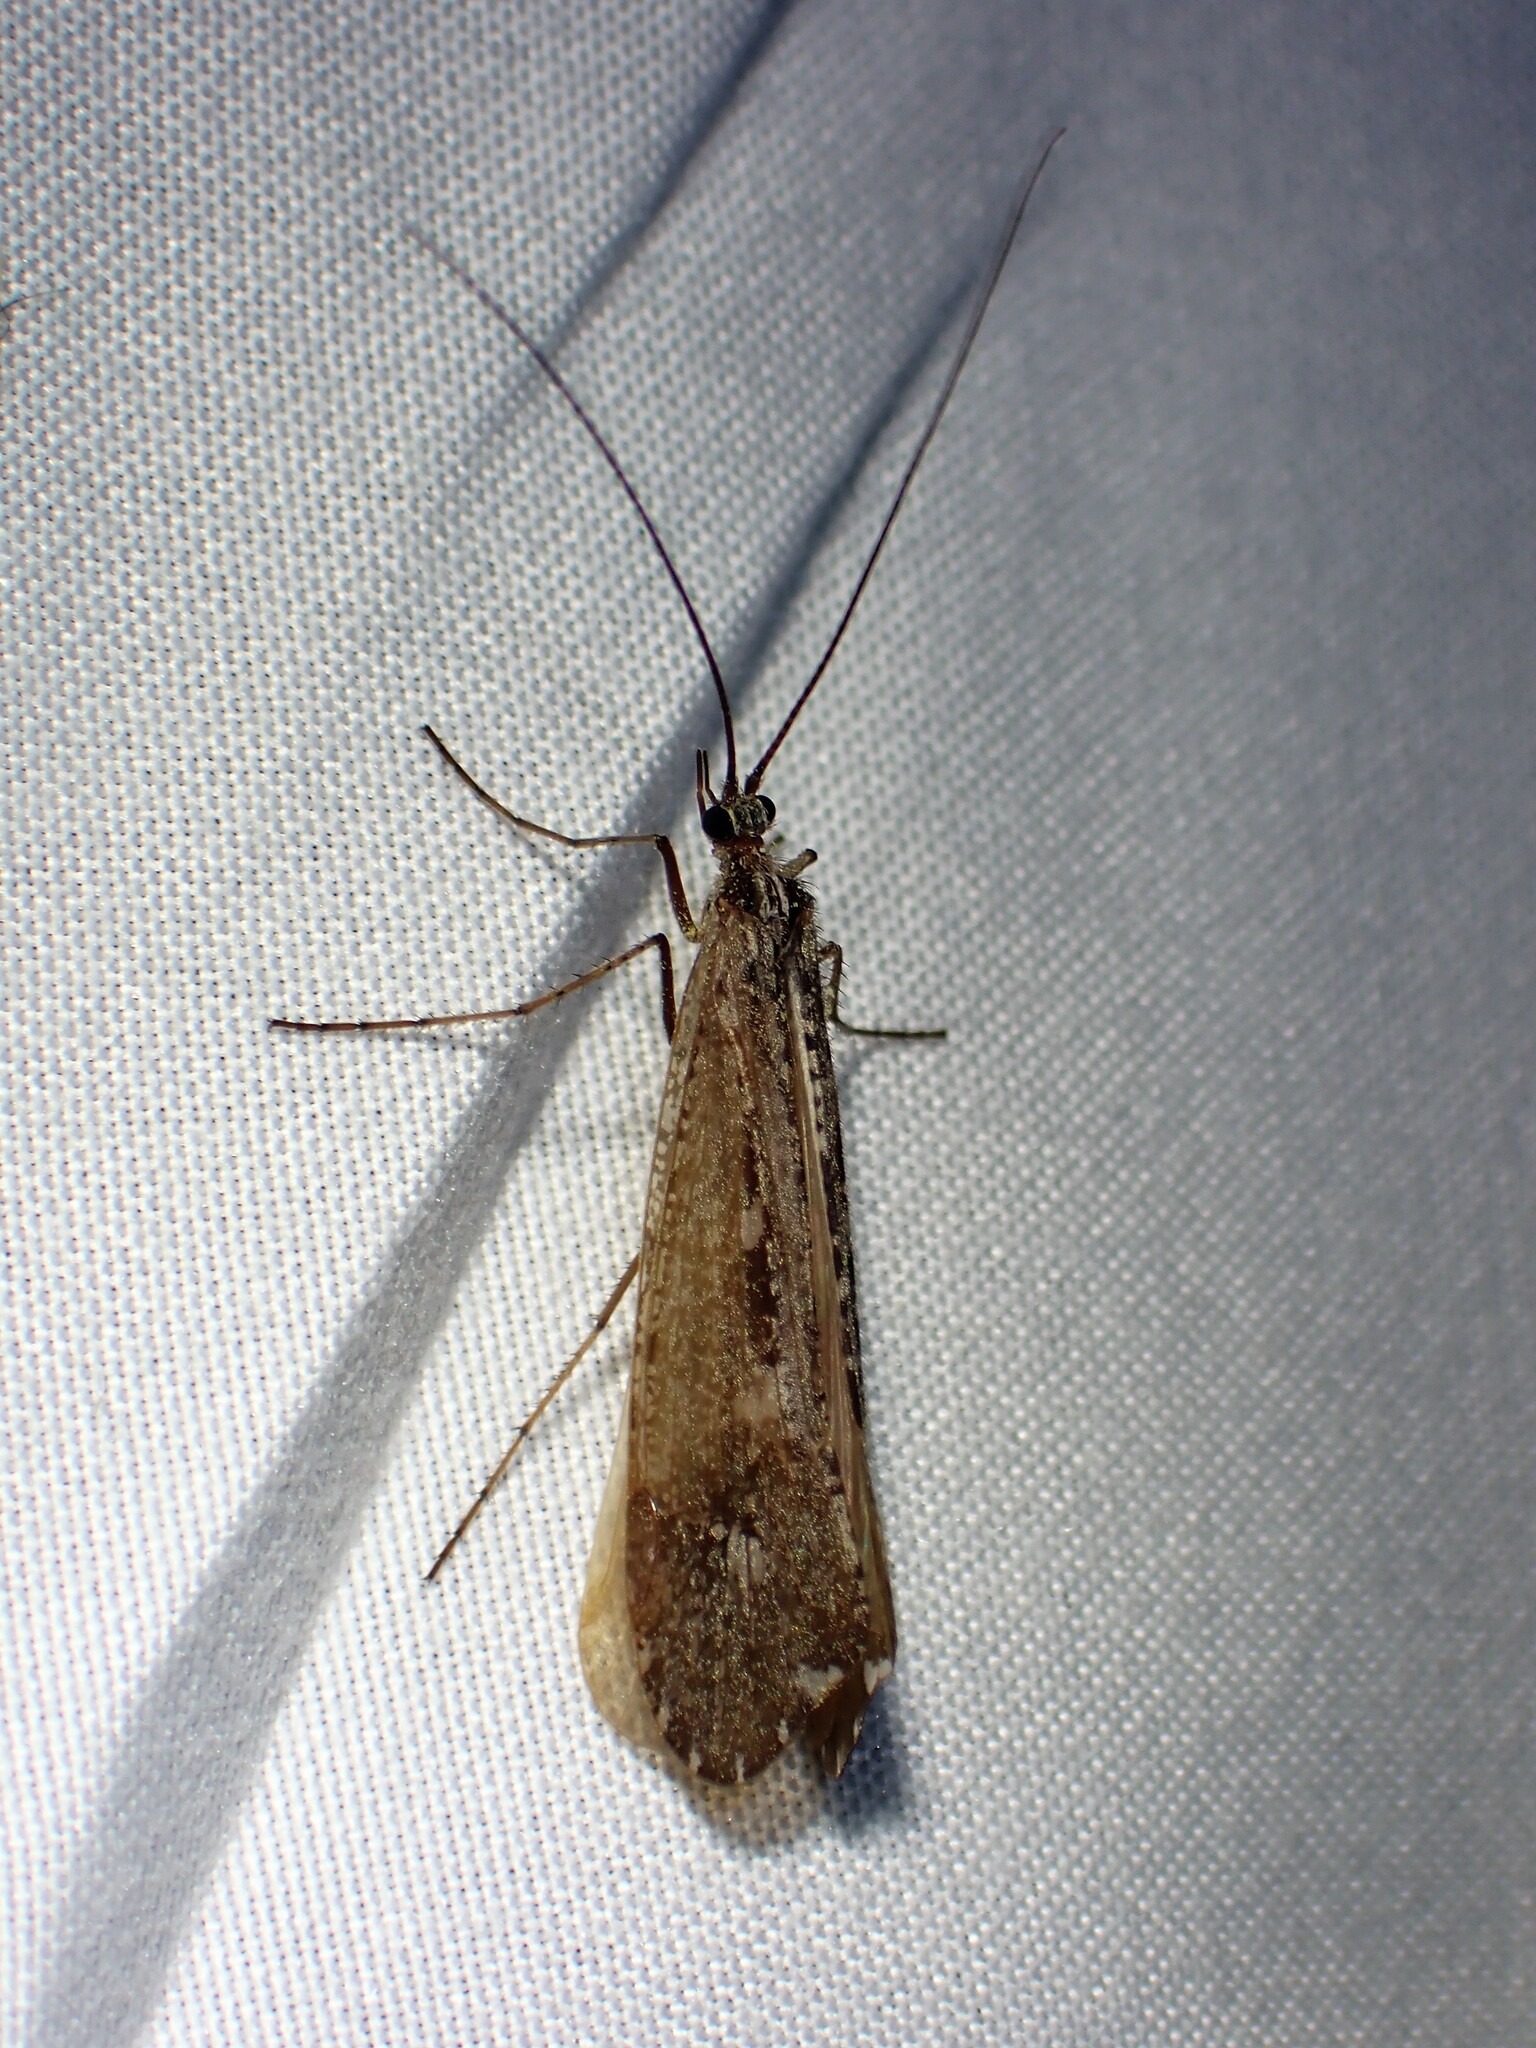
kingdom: Animalia
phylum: Arthropoda
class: Insecta
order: Trichoptera
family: Limnephilidae
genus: Glyphopsyche
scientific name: Glyphopsyche irrorata
